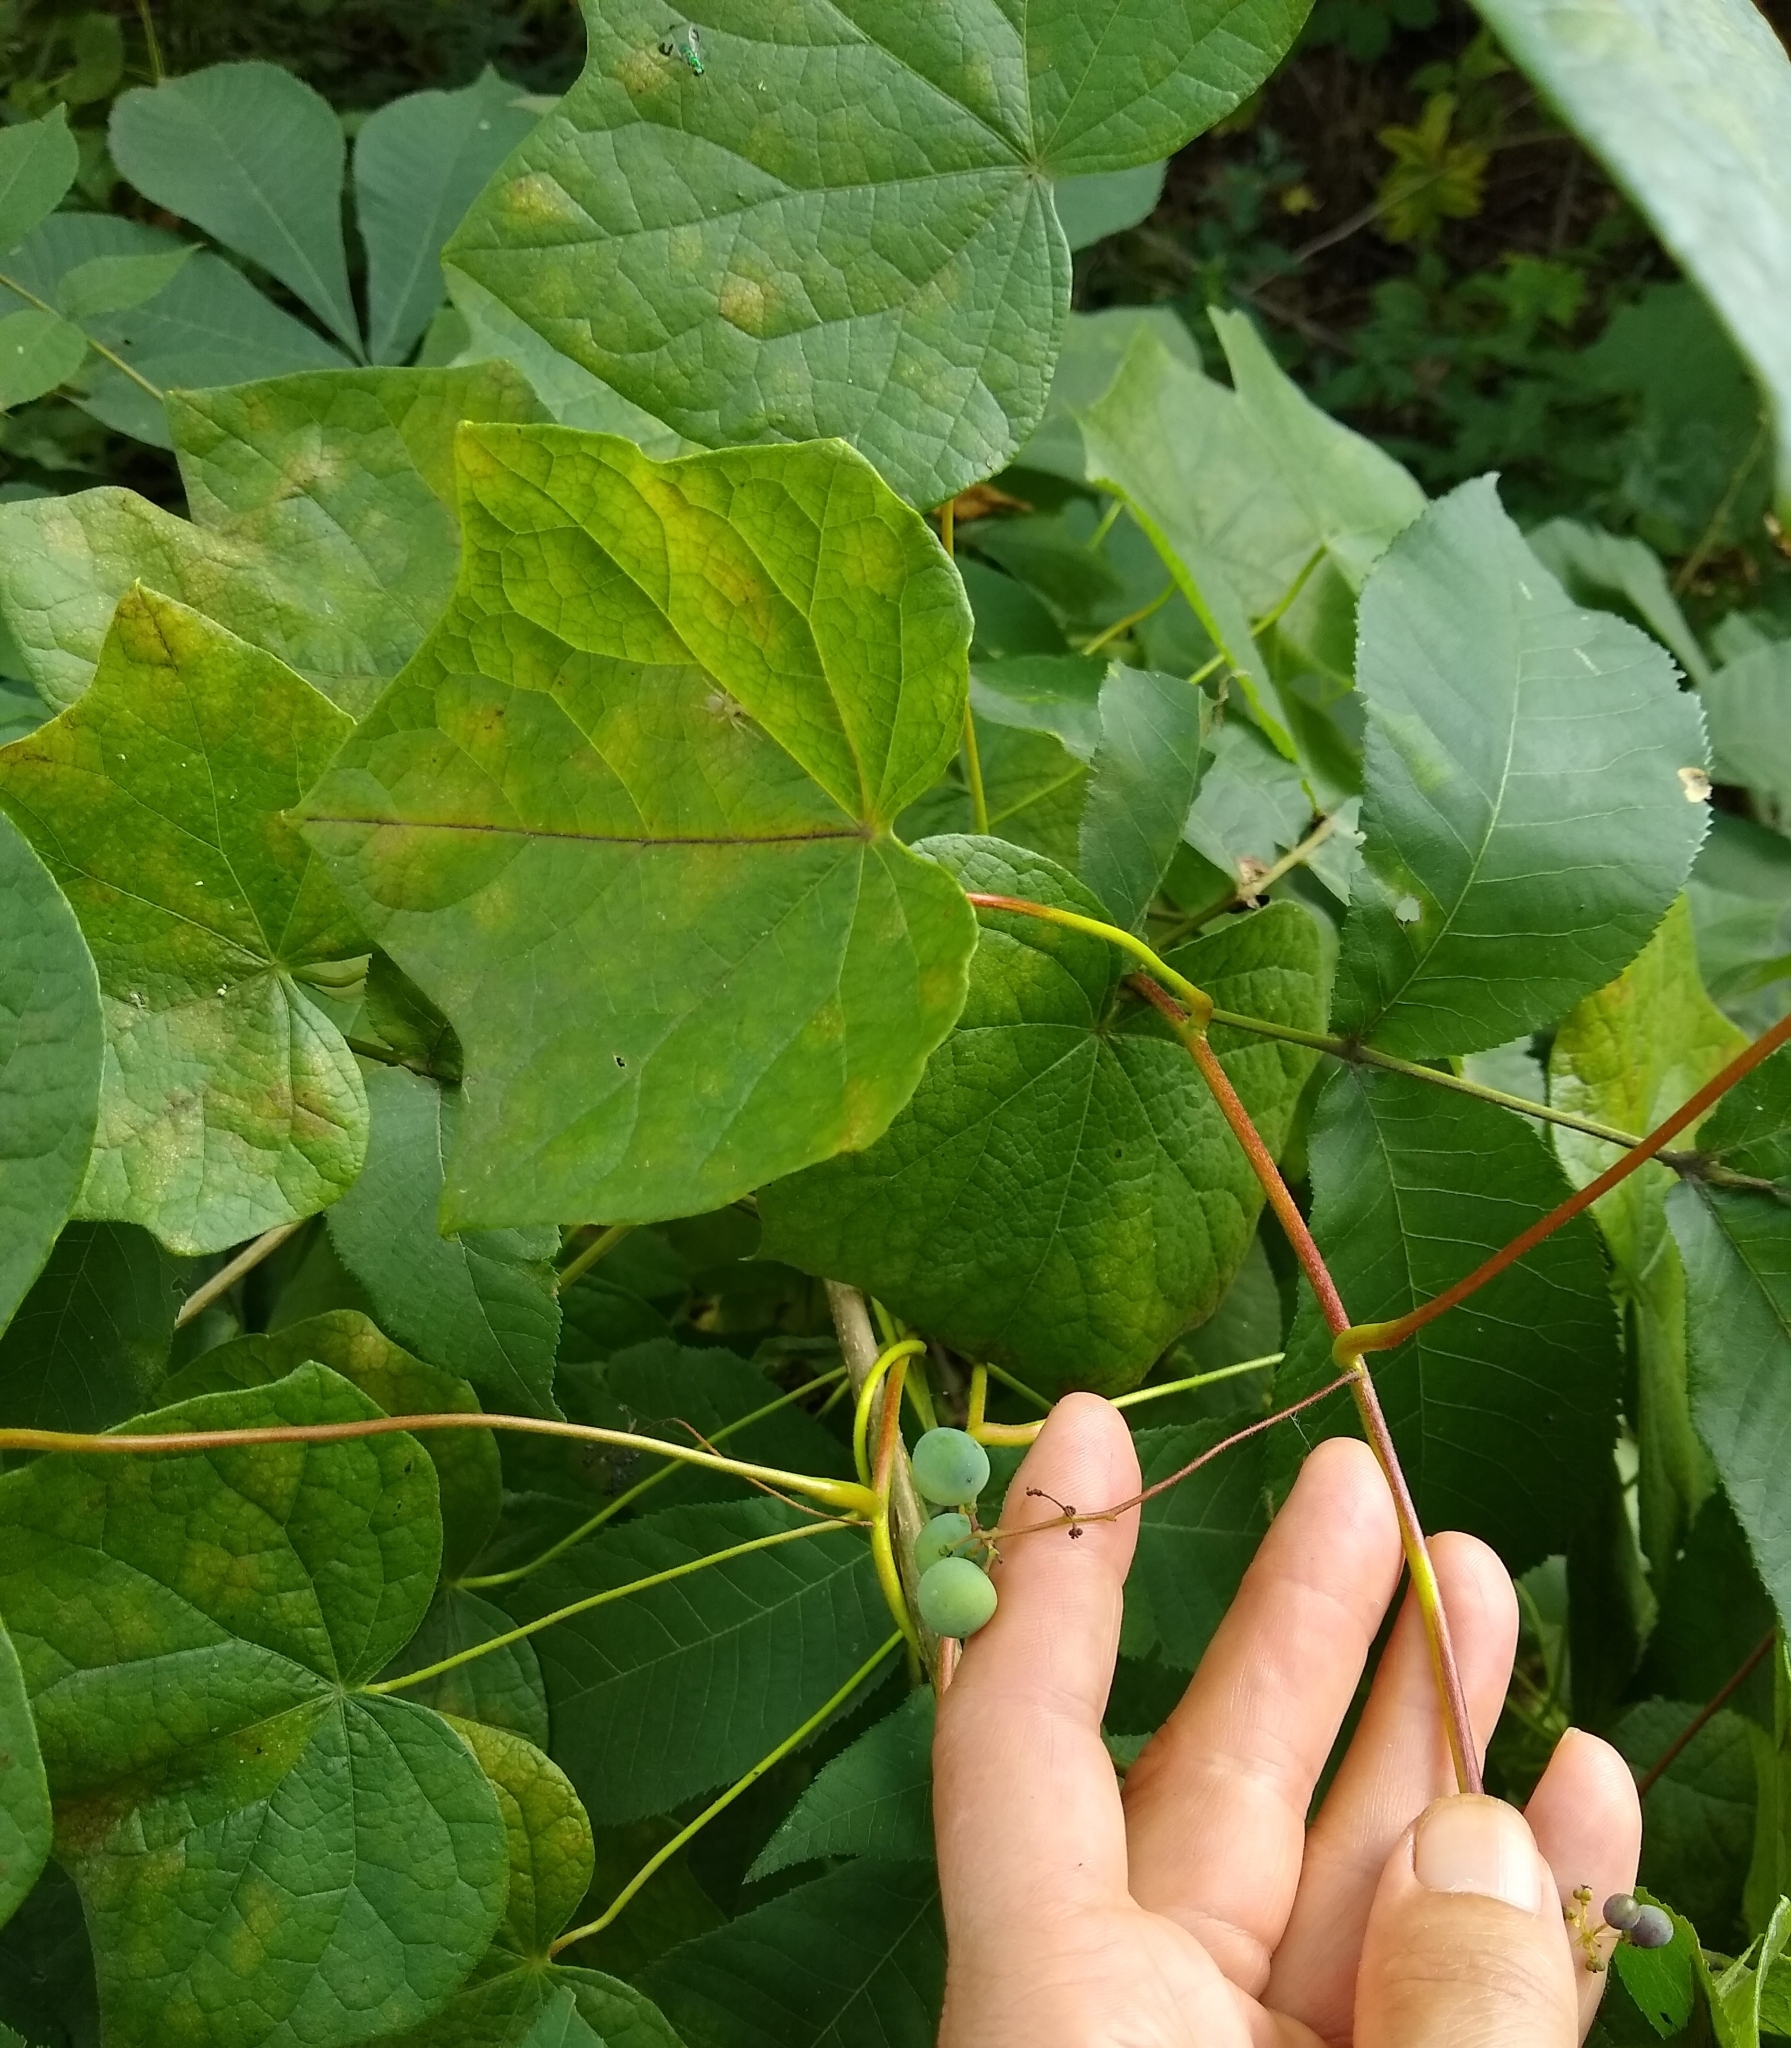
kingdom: Plantae
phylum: Tracheophyta
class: Magnoliopsida
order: Ranunculales
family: Menispermaceae
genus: Menispermum
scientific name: Menispermum canadense
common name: Moonseed
